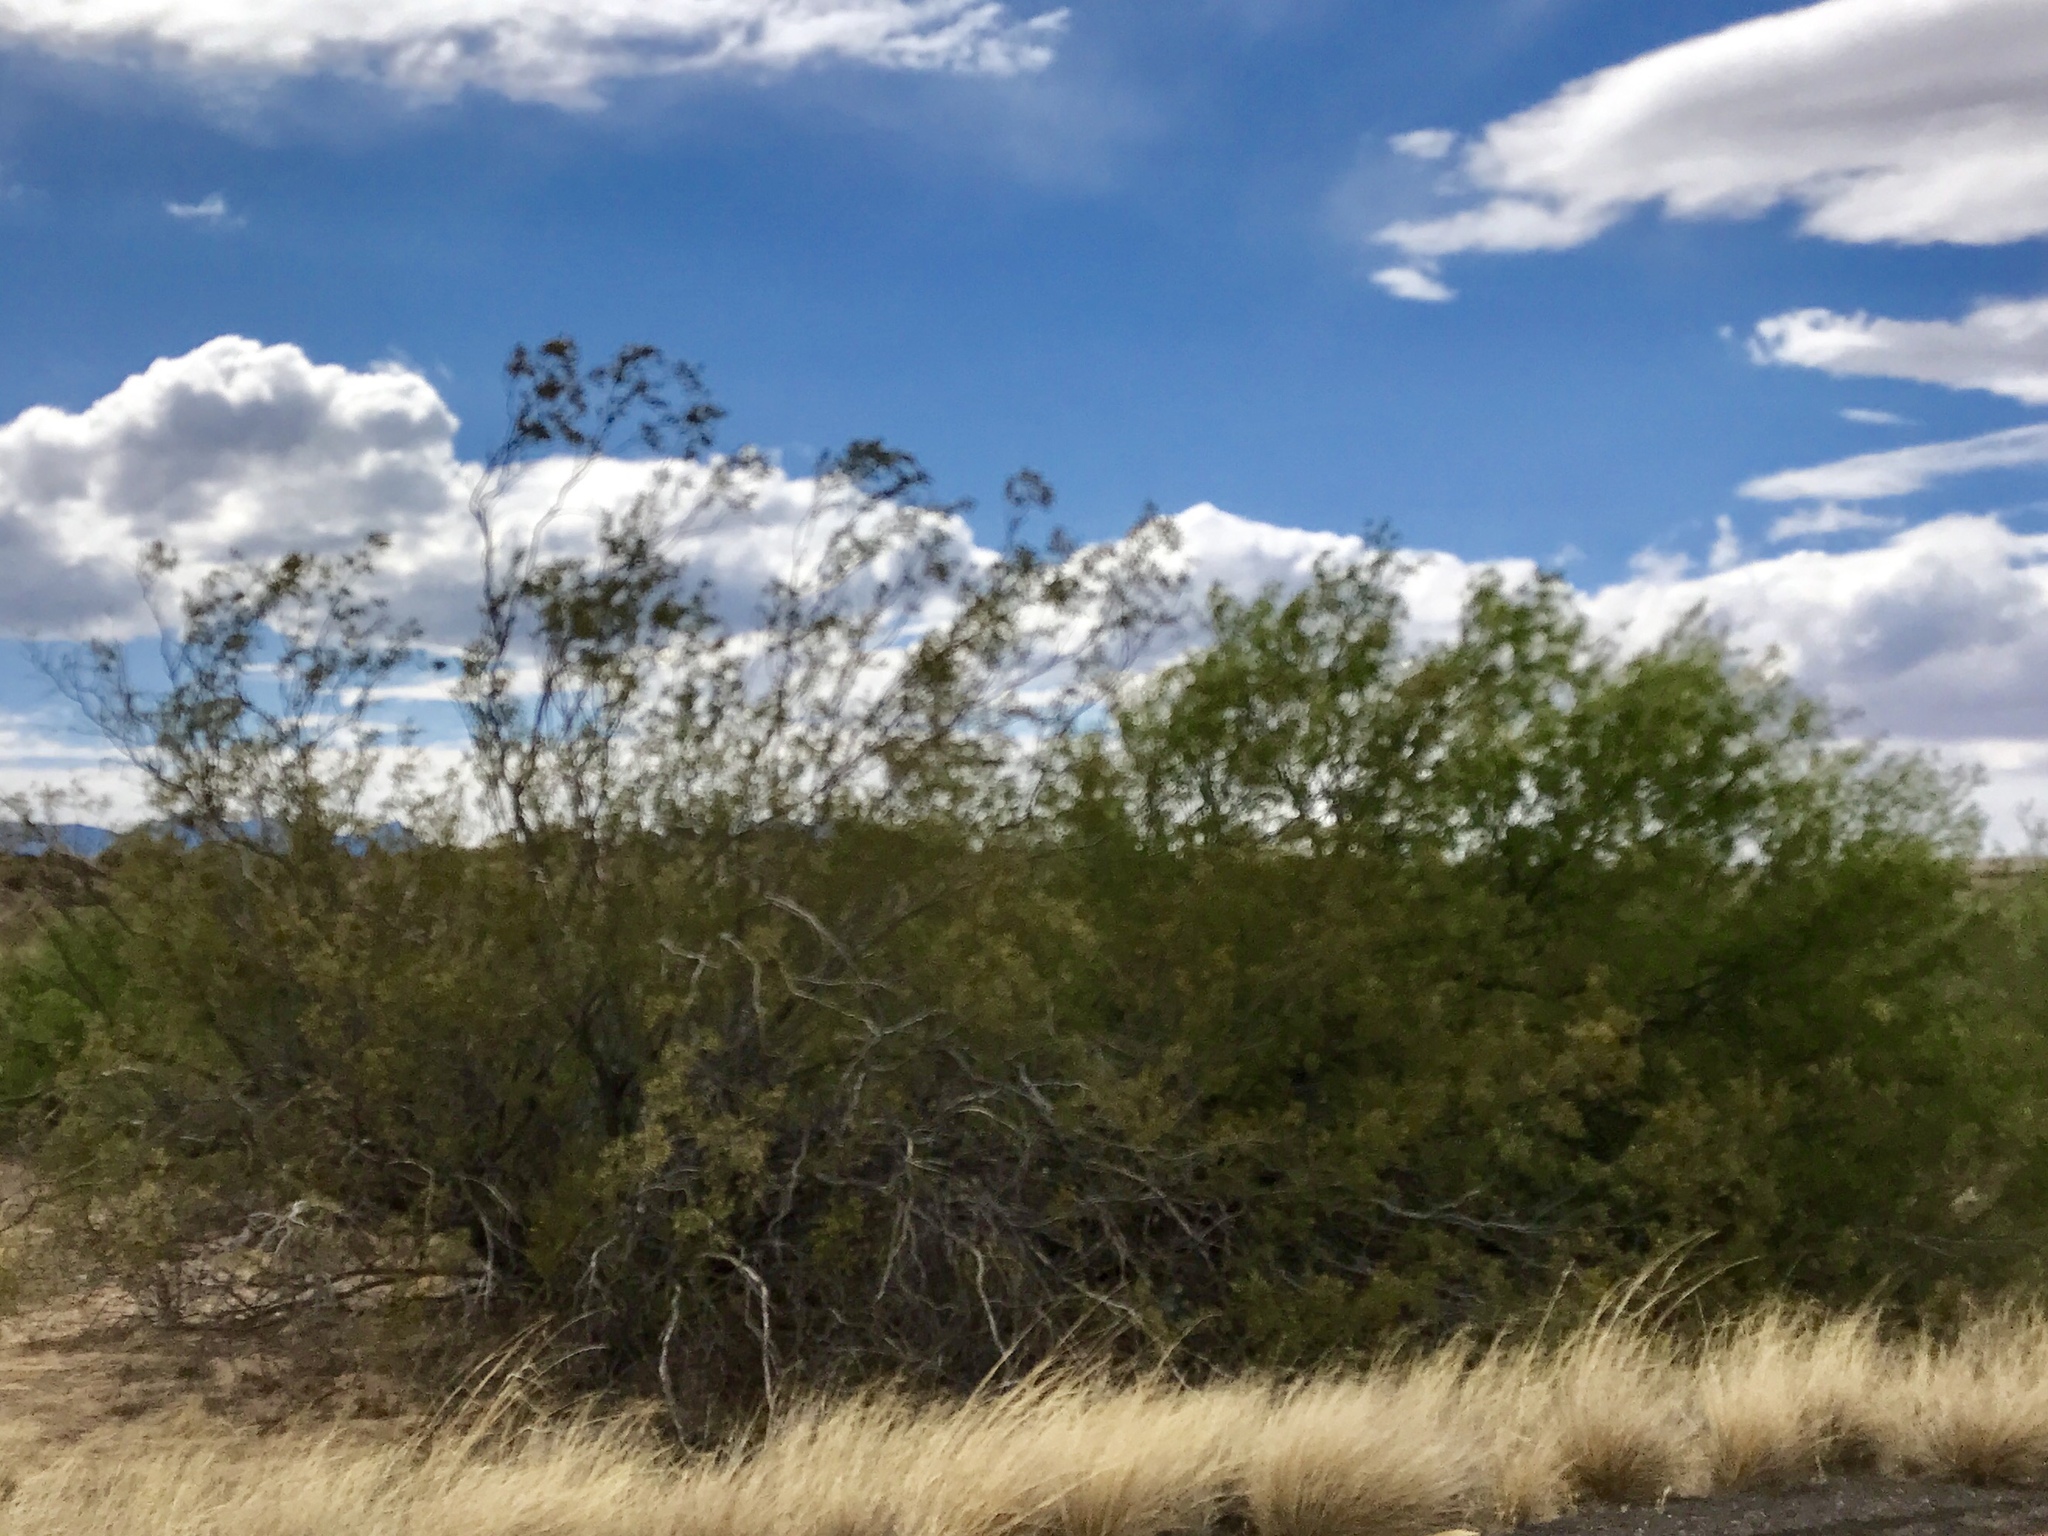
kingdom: Plantae
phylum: Tracheophyta
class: Magnoliopsida
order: Zygophyllales
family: Zygophyllaceae
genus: Larrea
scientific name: Larrea tridentata
